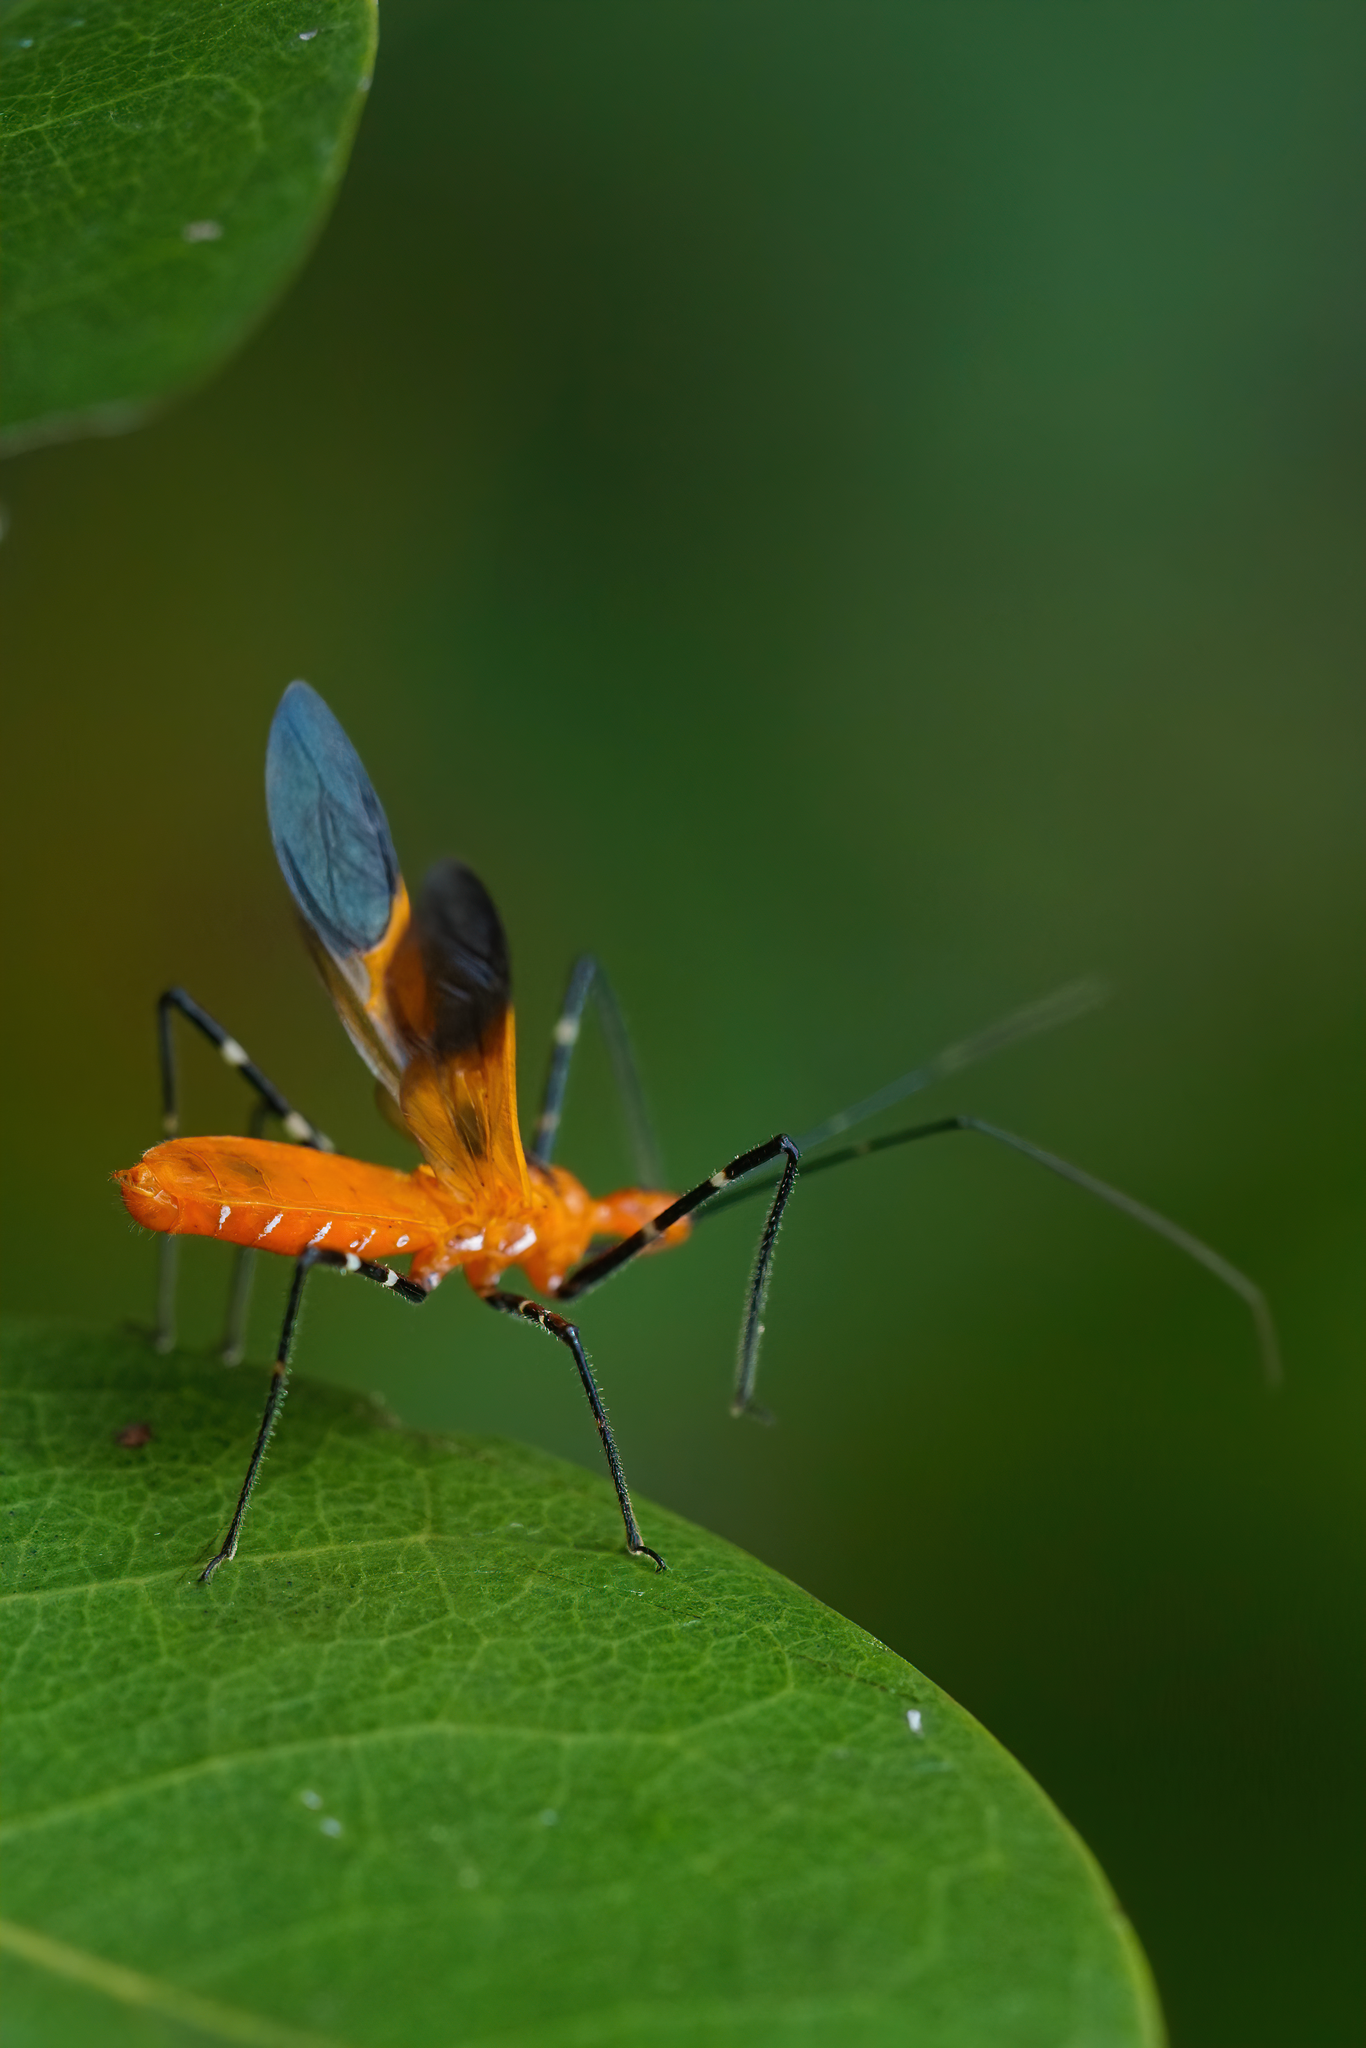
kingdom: Animalia
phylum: Arthropoda
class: Insecta
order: Hemiptera
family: Reduviidae
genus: Zelus
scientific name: Zelus longipes
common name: Milkweed assassin bug
